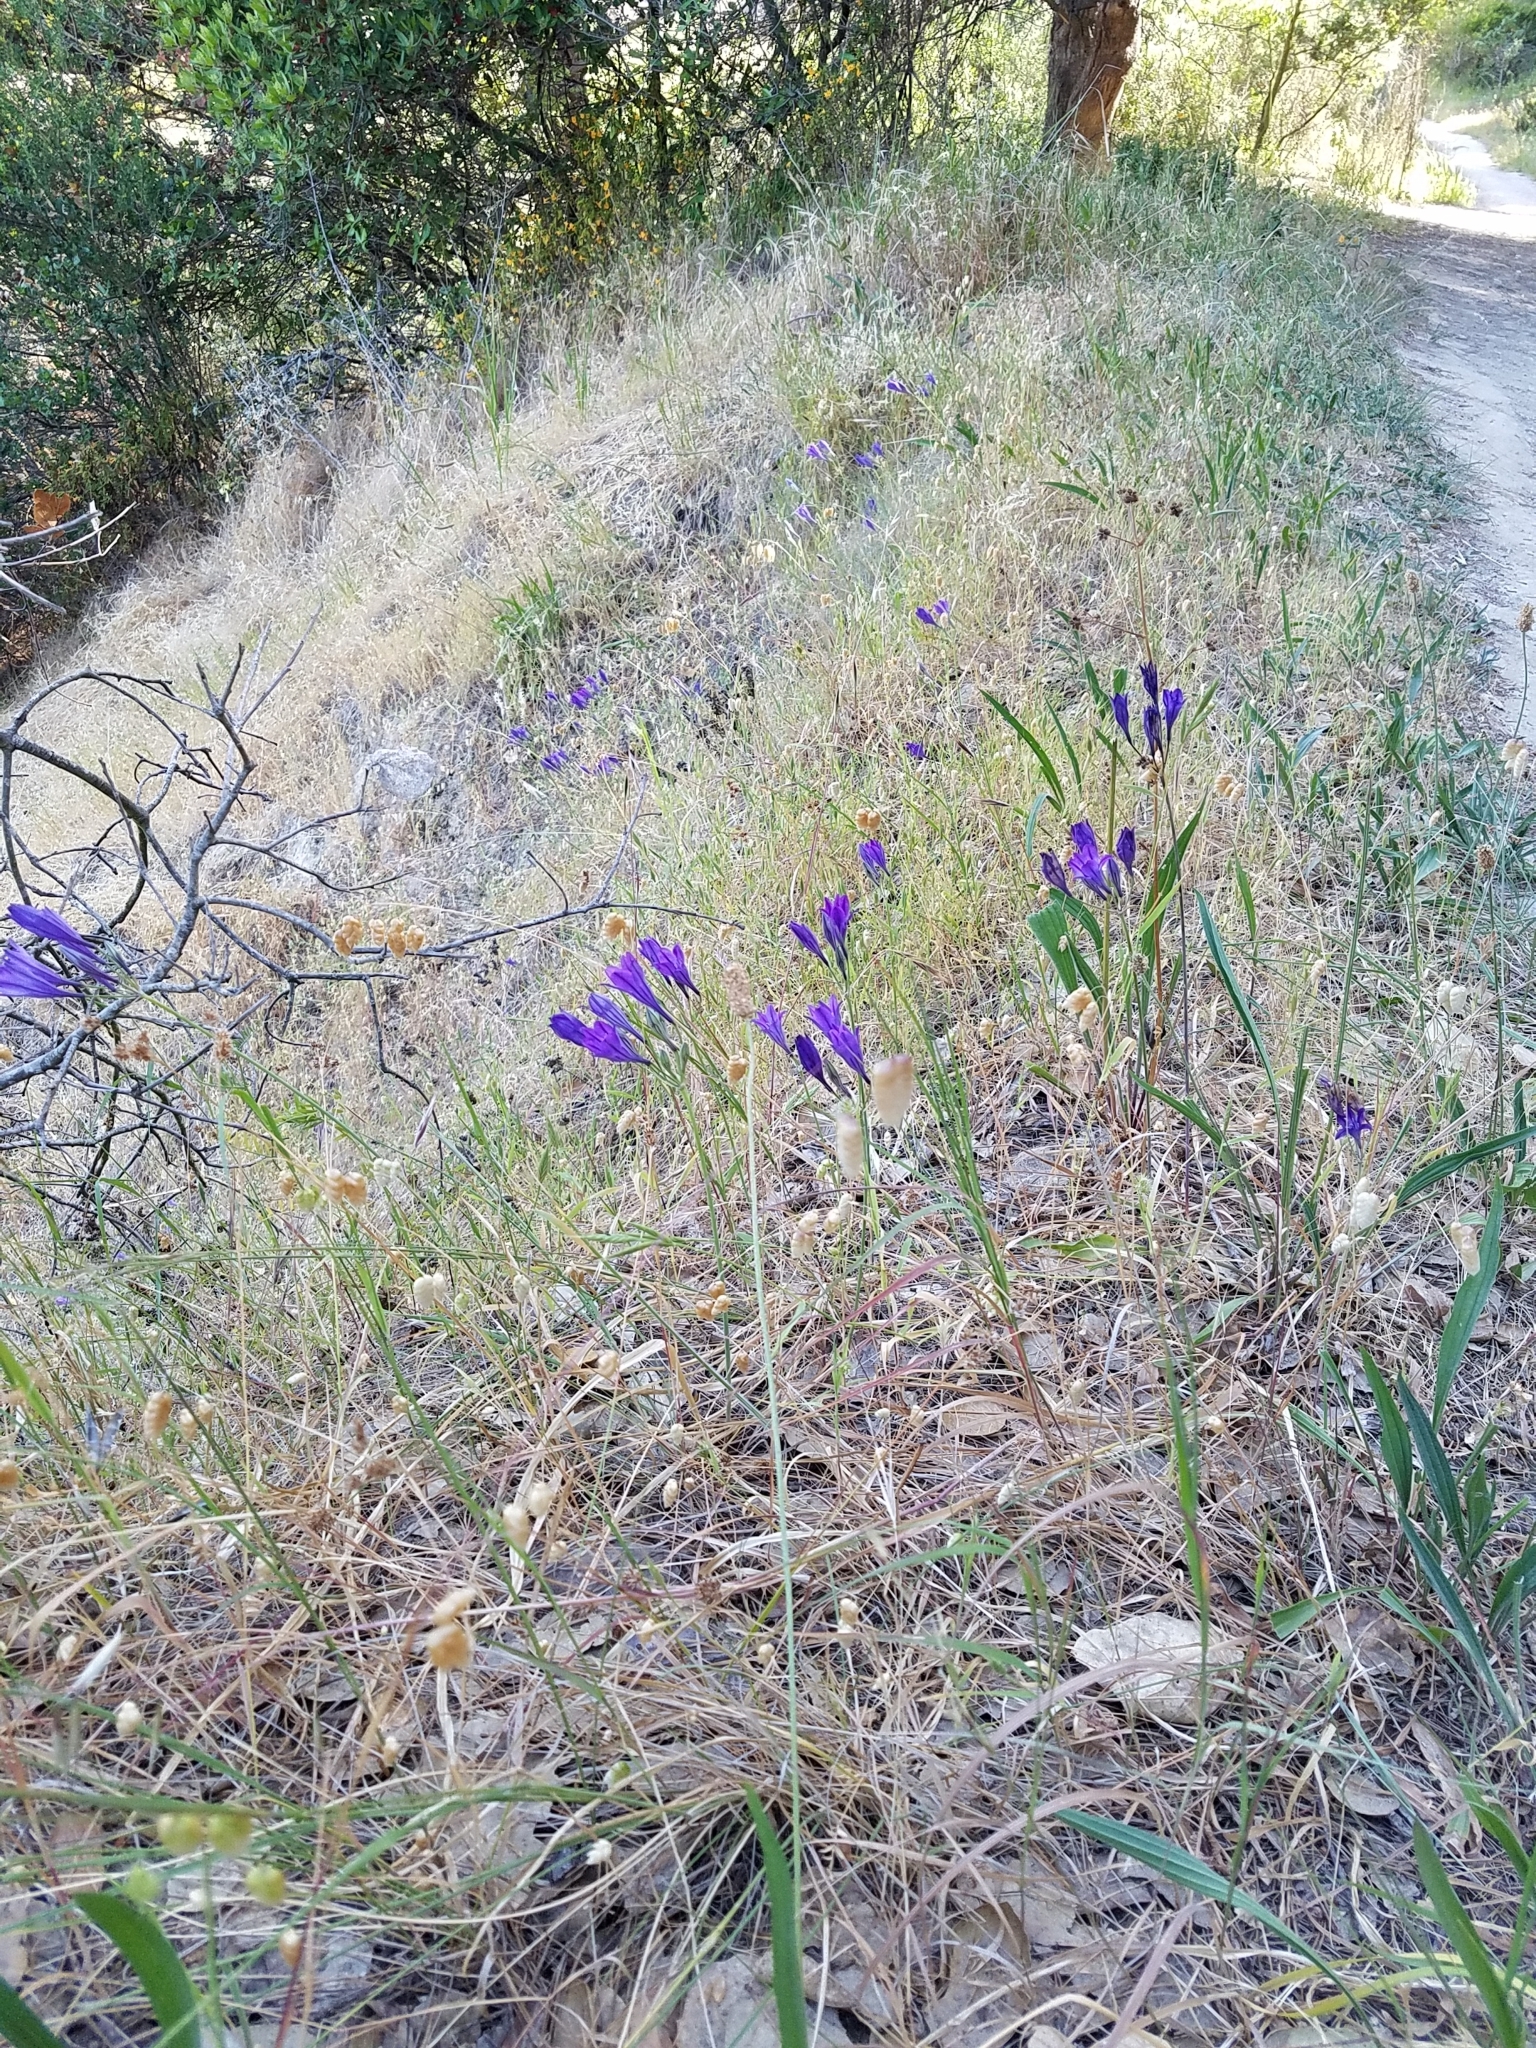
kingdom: Plantae
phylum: Tracheophyta
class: Liliopsida
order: Asparagales
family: Asparagaceae
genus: Triteleia
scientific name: Triteleia laxa
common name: Triplet-lily
